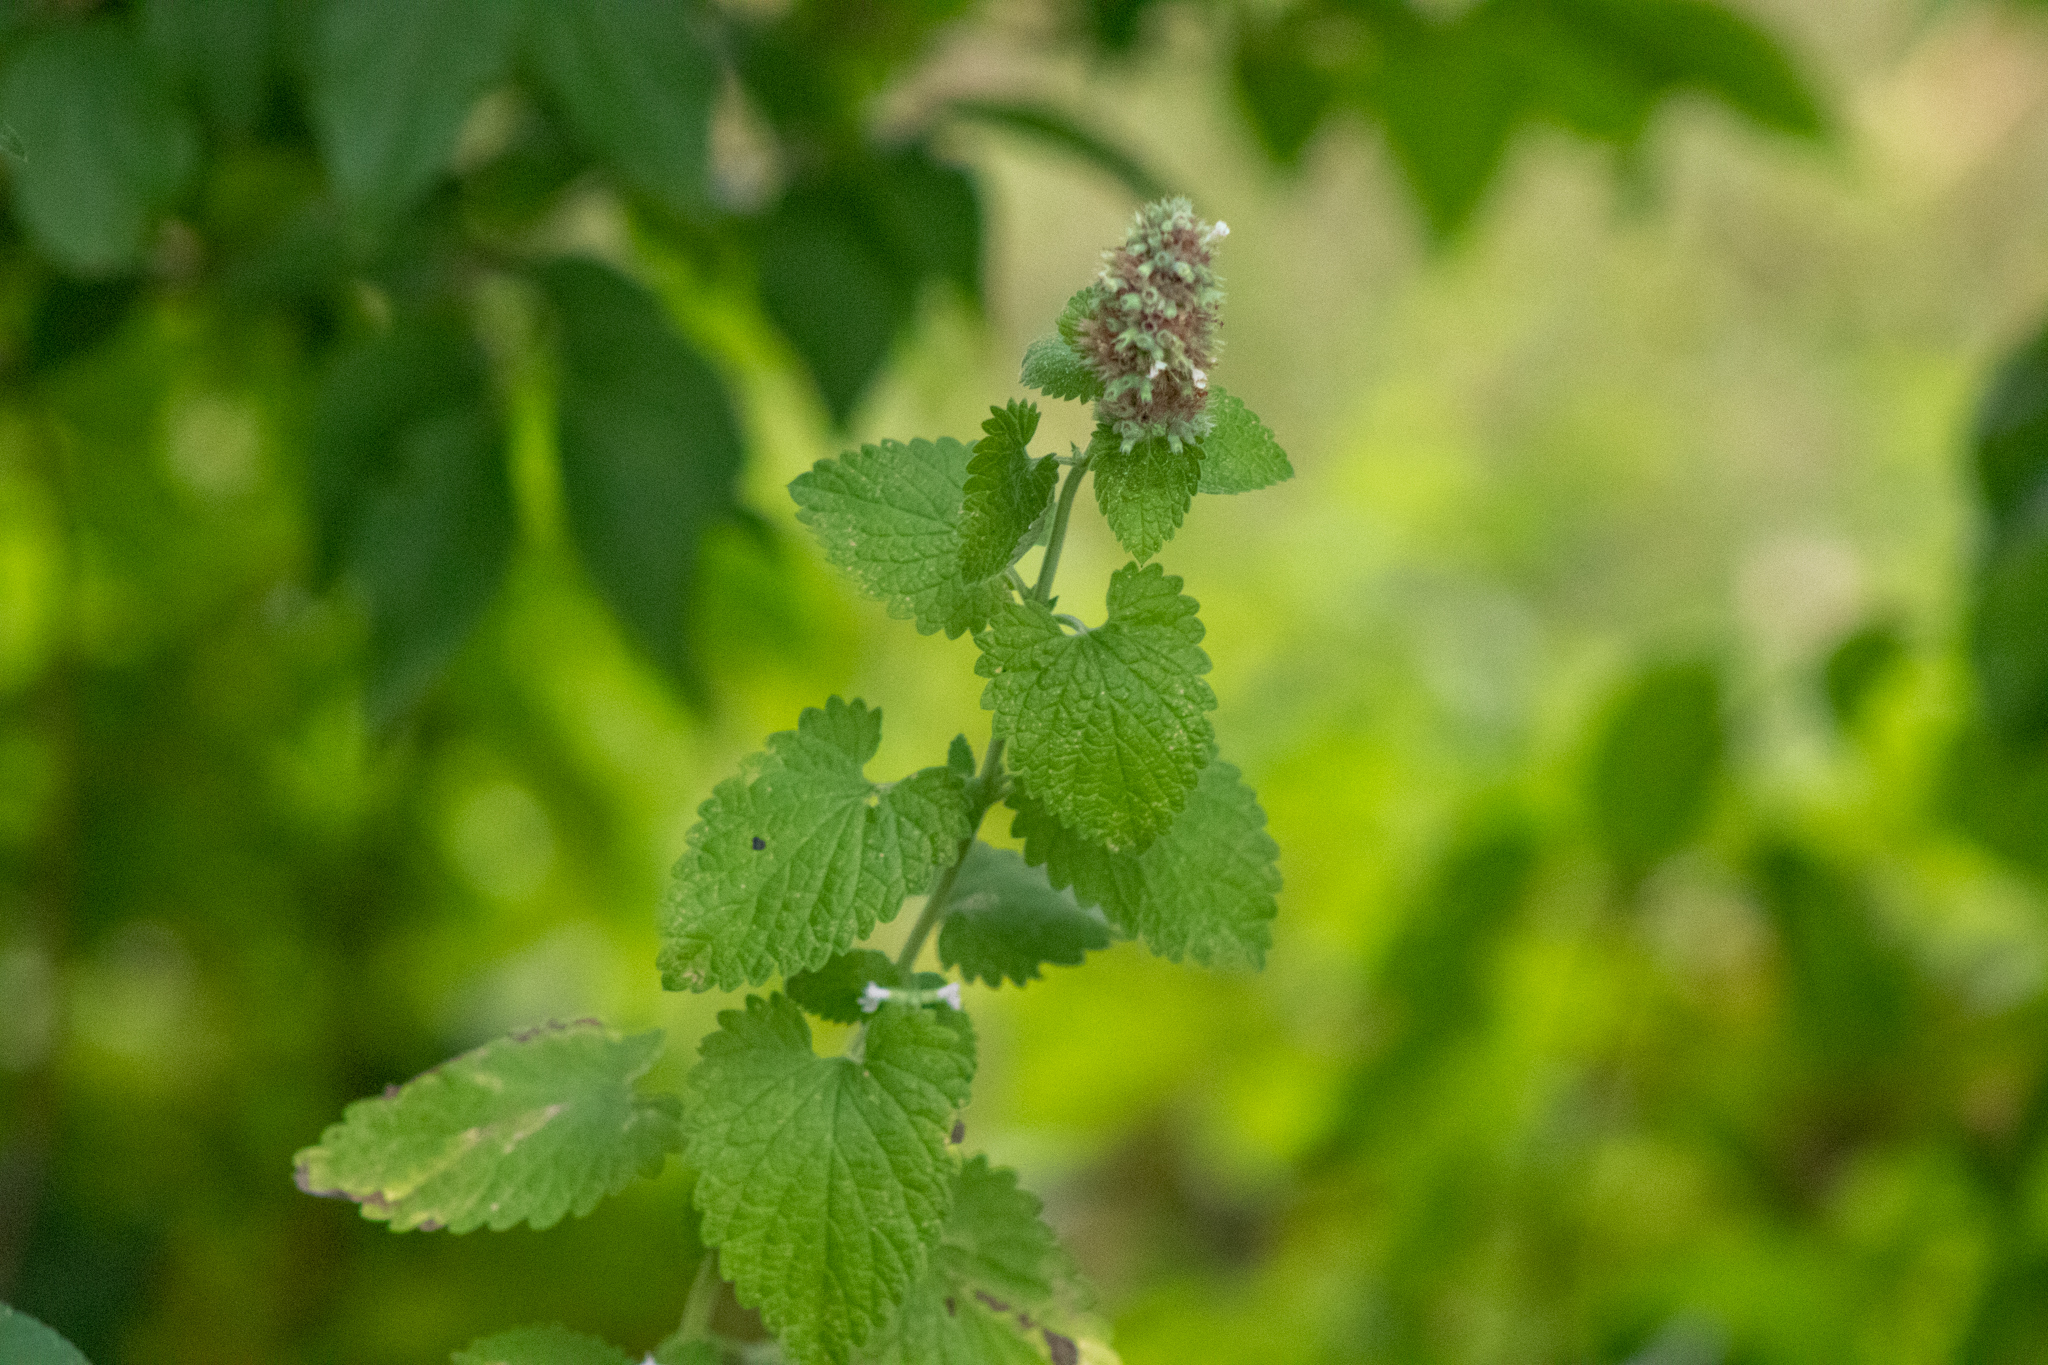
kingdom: Plantae
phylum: Tracheophyta
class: Magnoliopsida
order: Lamiales
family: Lamiaceae
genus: Nepeta
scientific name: Nepeta cataria
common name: Catnip
